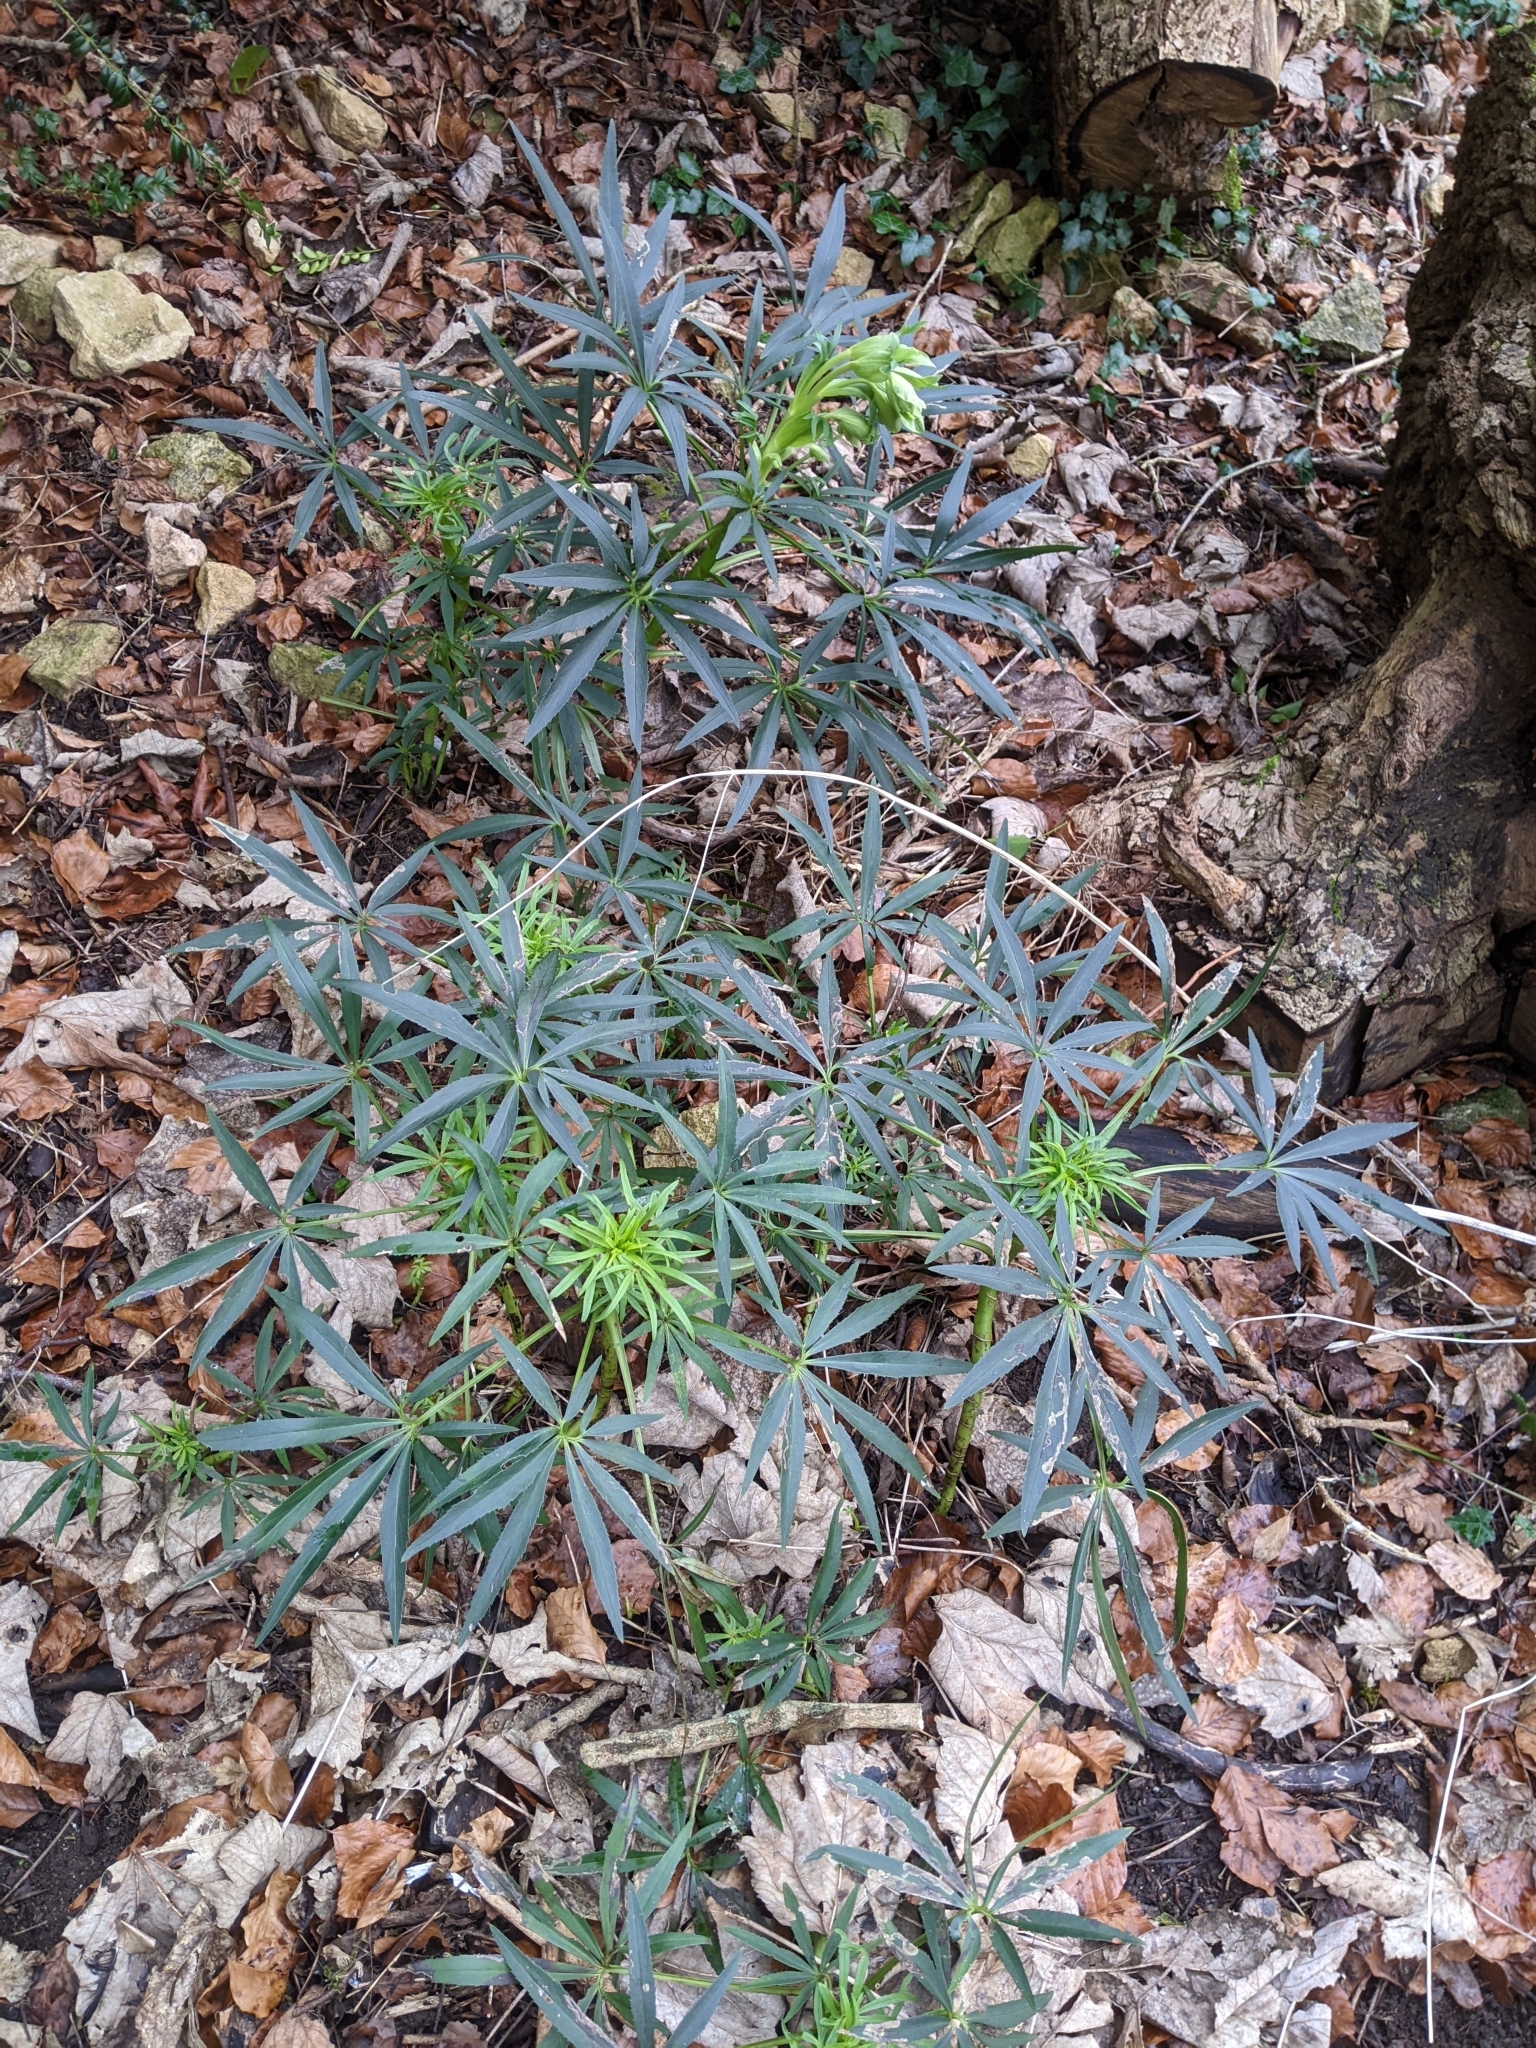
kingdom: Plantae
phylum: Tracheophyta
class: Magnoliopsida
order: Ranunculales
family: Ranunculaceae
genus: Helleborus
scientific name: Helleborus foetidus
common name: Stinking hellebore
